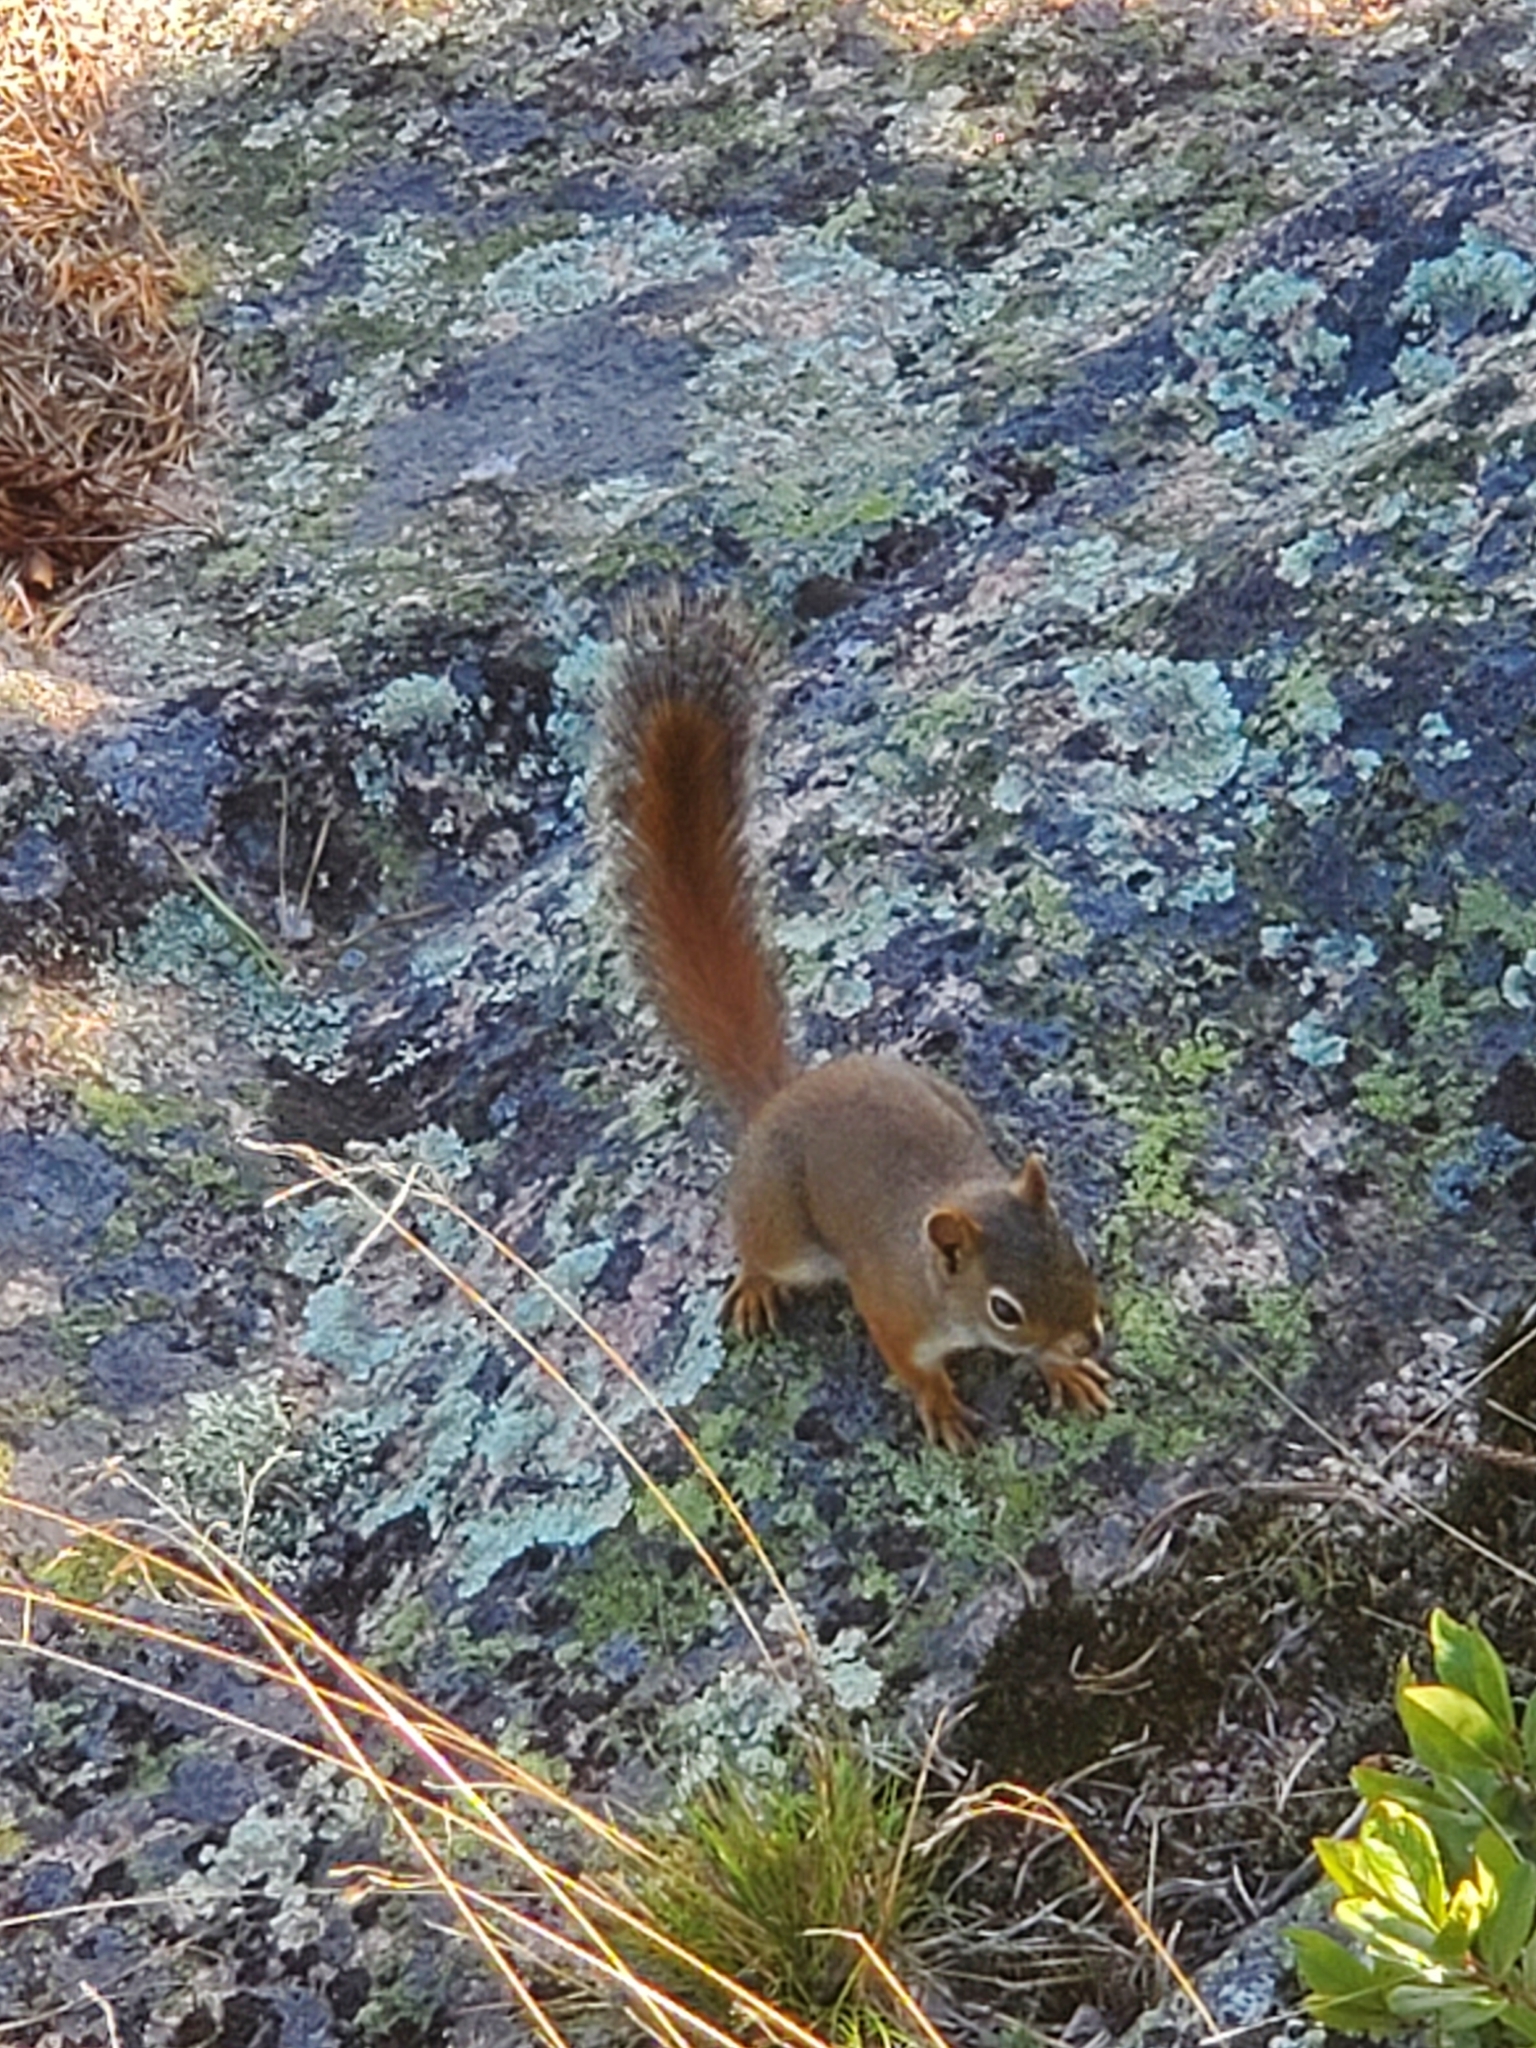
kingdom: Animalia
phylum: Chordata
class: Mammalia
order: Rodentia
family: Sciuridae
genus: Tamiasciurus
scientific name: Tamiasciurus hudsonicus
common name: Red squirrel
